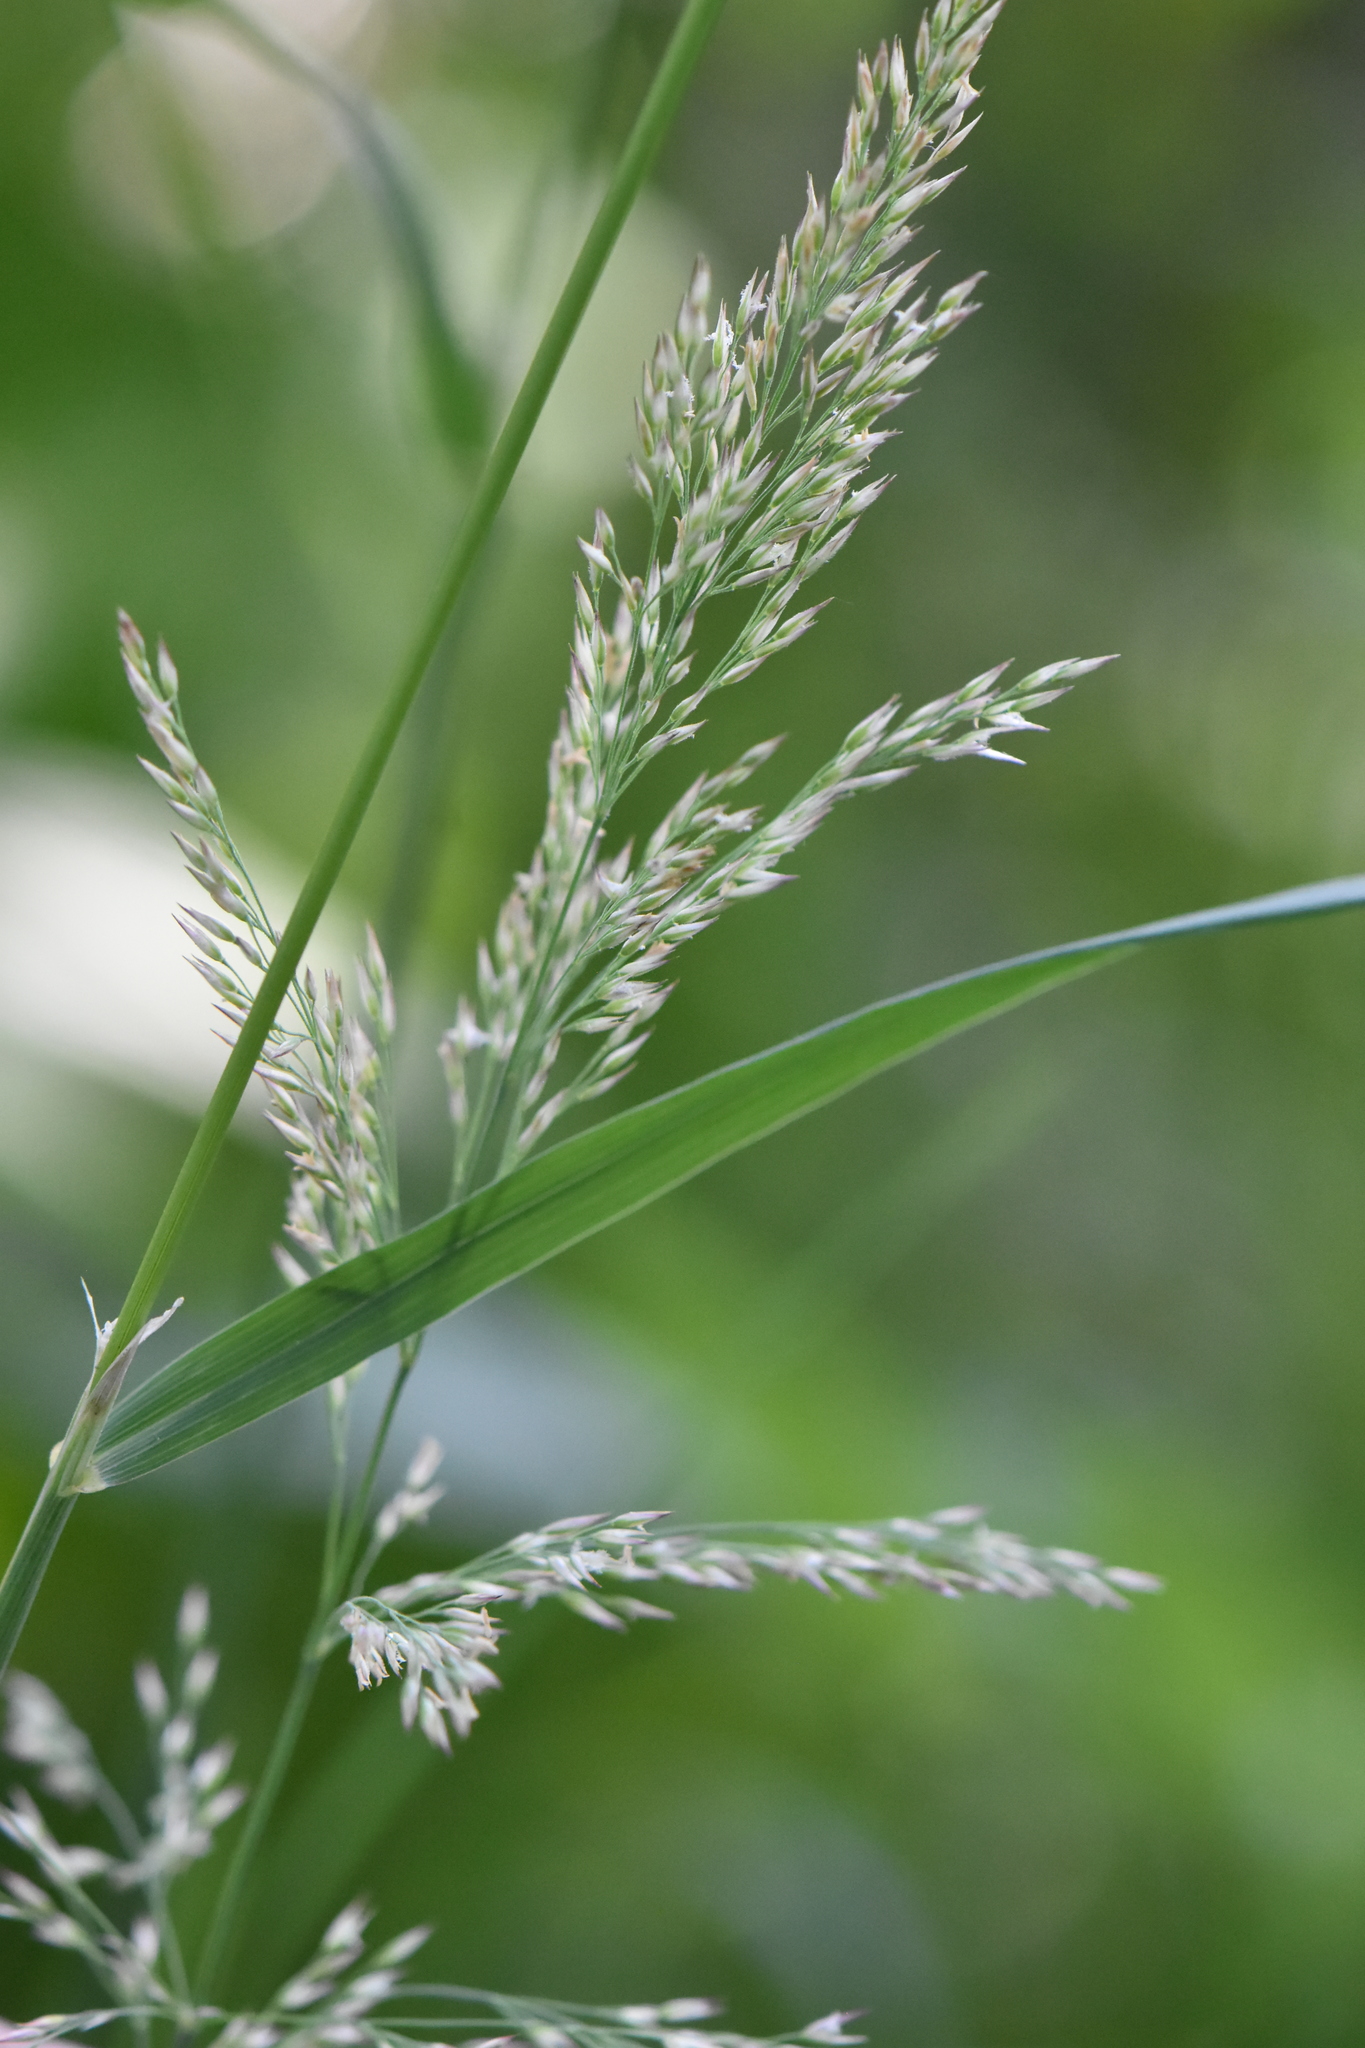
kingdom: Plantae
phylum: Tracheophyta
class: Liliopsida
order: Poales
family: Poaceae
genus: Calamagrostis
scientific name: Calamagrostis purpurea
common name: Scandinavian small-reed
